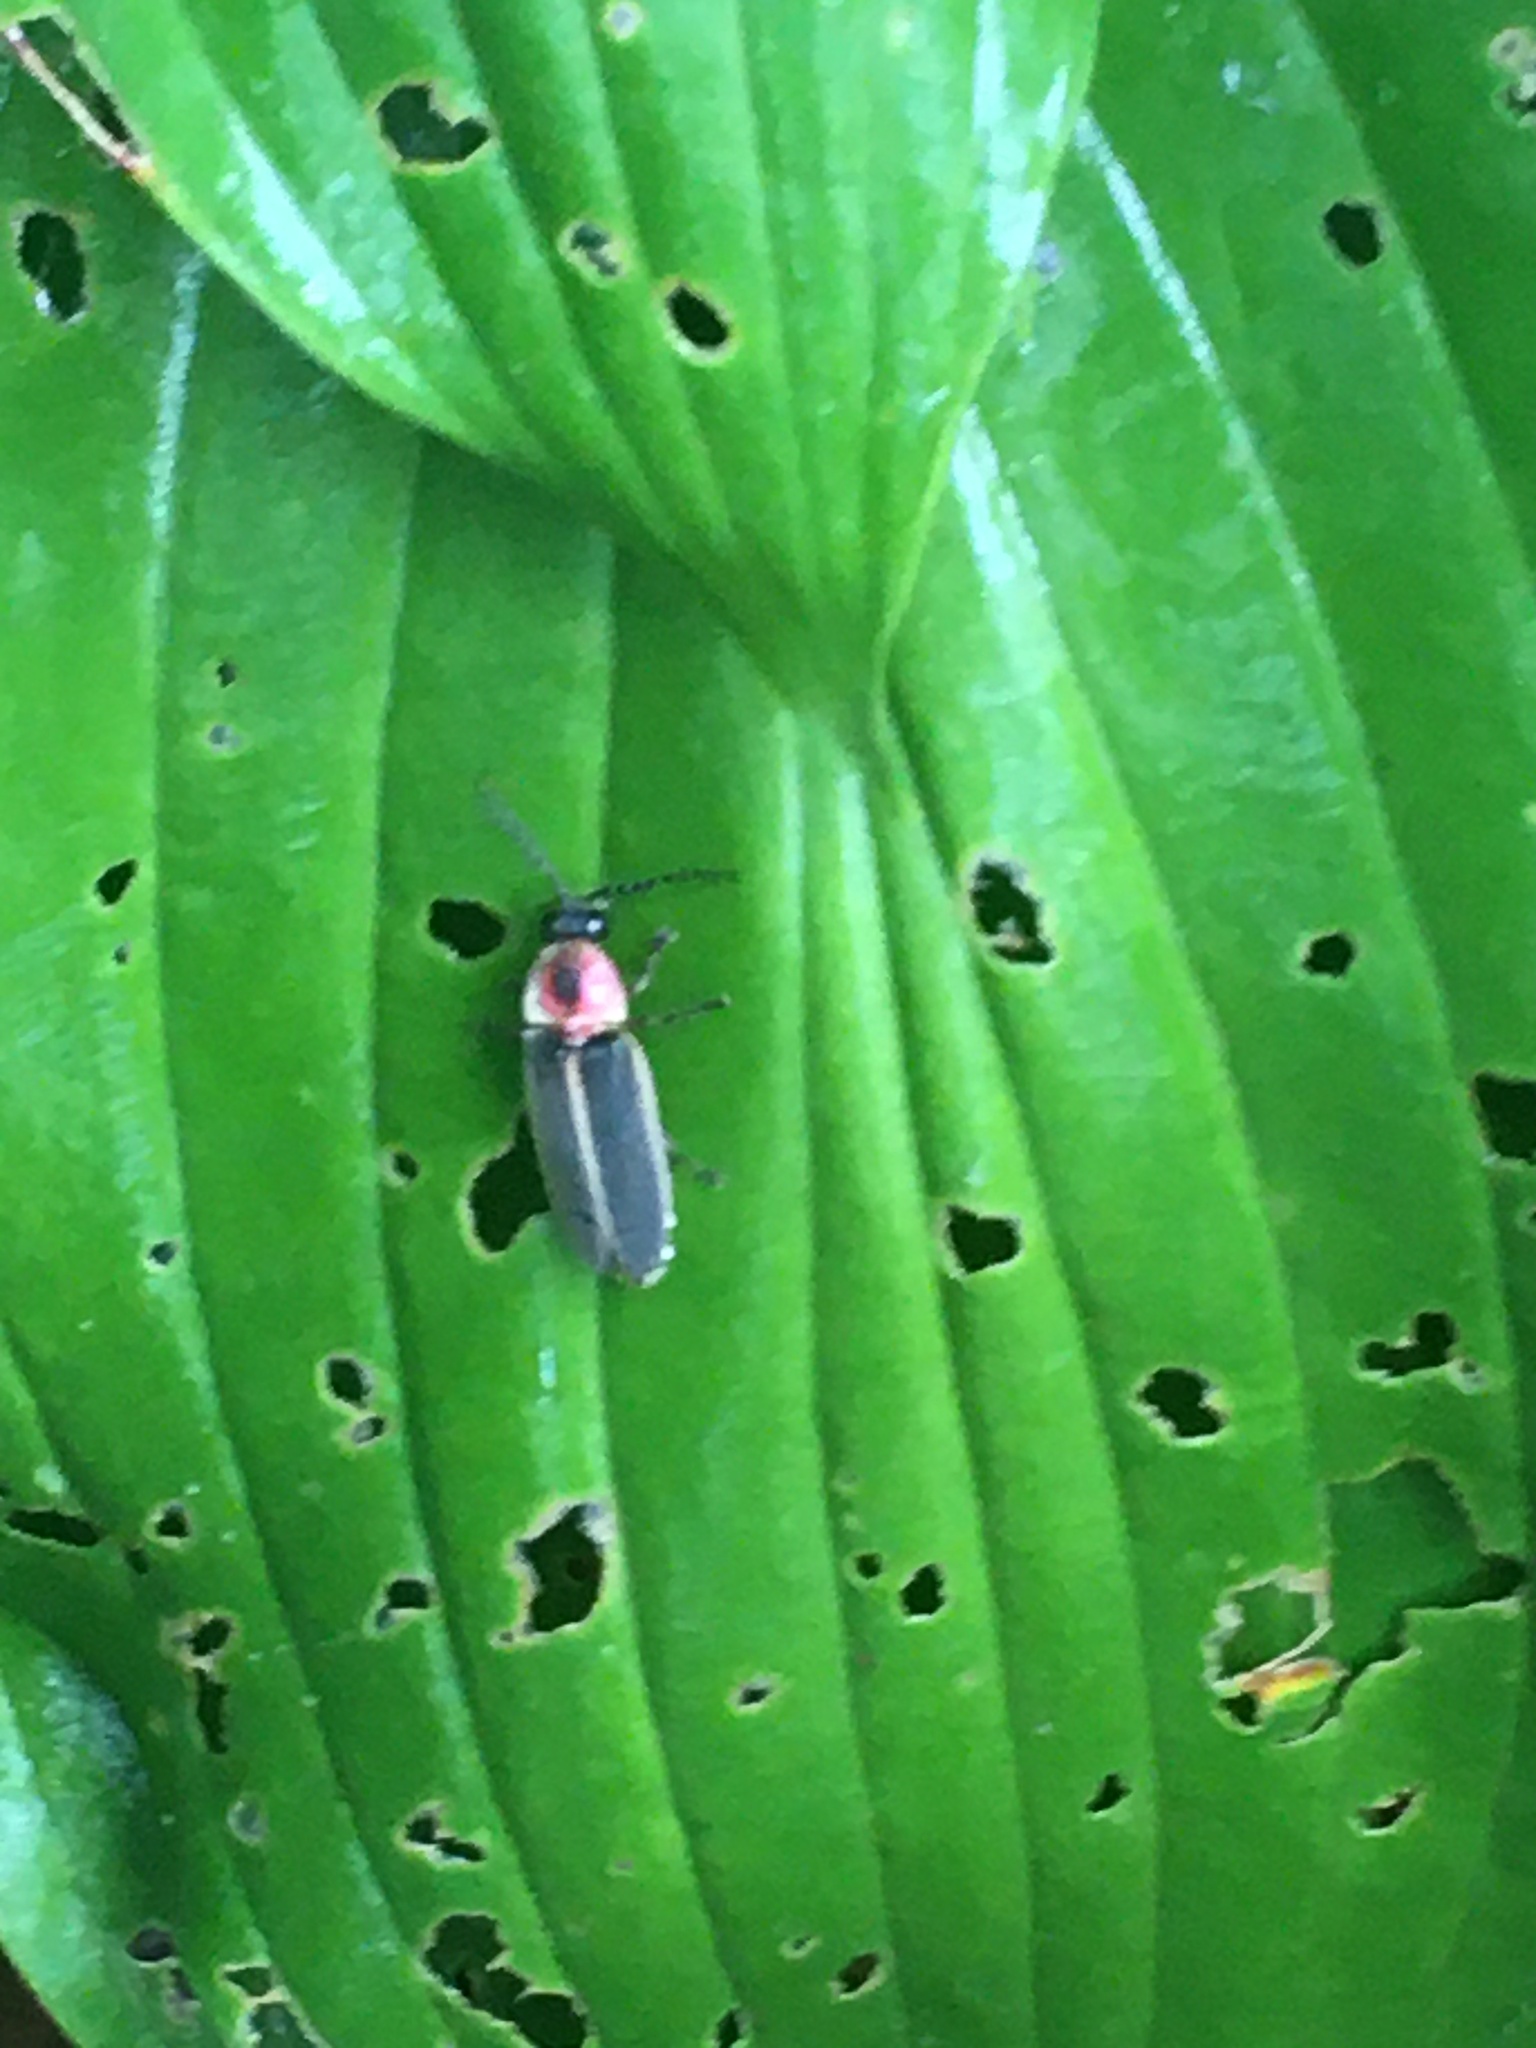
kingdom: Animalia
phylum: Arthropoda
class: Insecta
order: Coleoptera
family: Lampyridae
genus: Photinus
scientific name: Photinus pyralis
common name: Big dipper firefly
